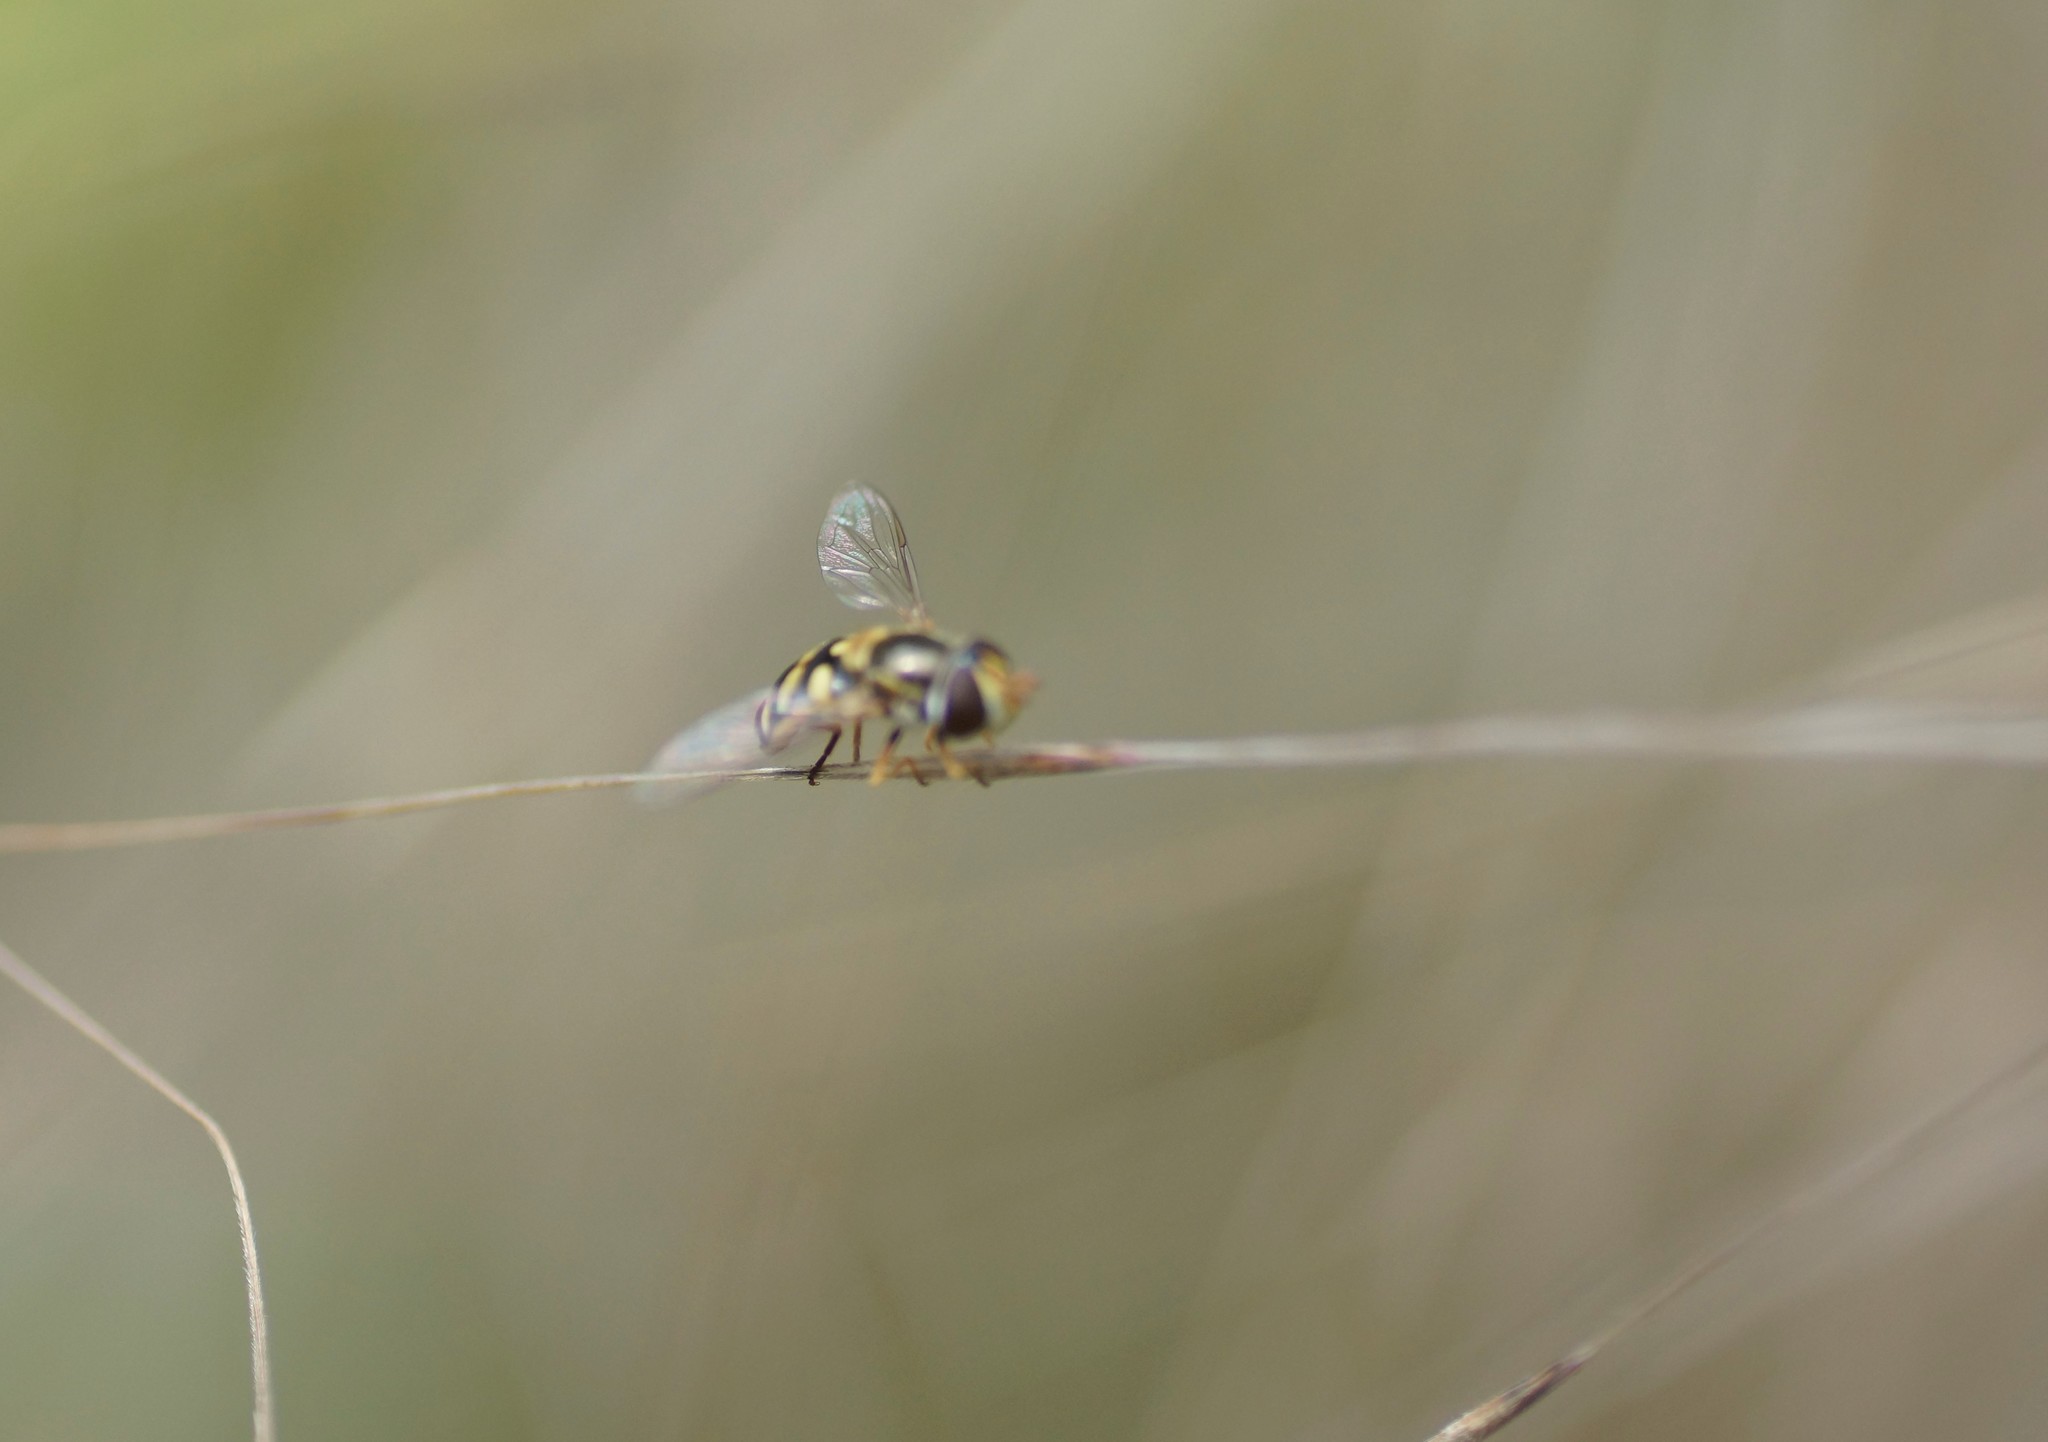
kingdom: Animalia
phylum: Arthropoda
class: Insecta
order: Diptera
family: Syrphidae
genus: Simosyrphus
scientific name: Simosyrphus grandicornis
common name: Hoverfly
